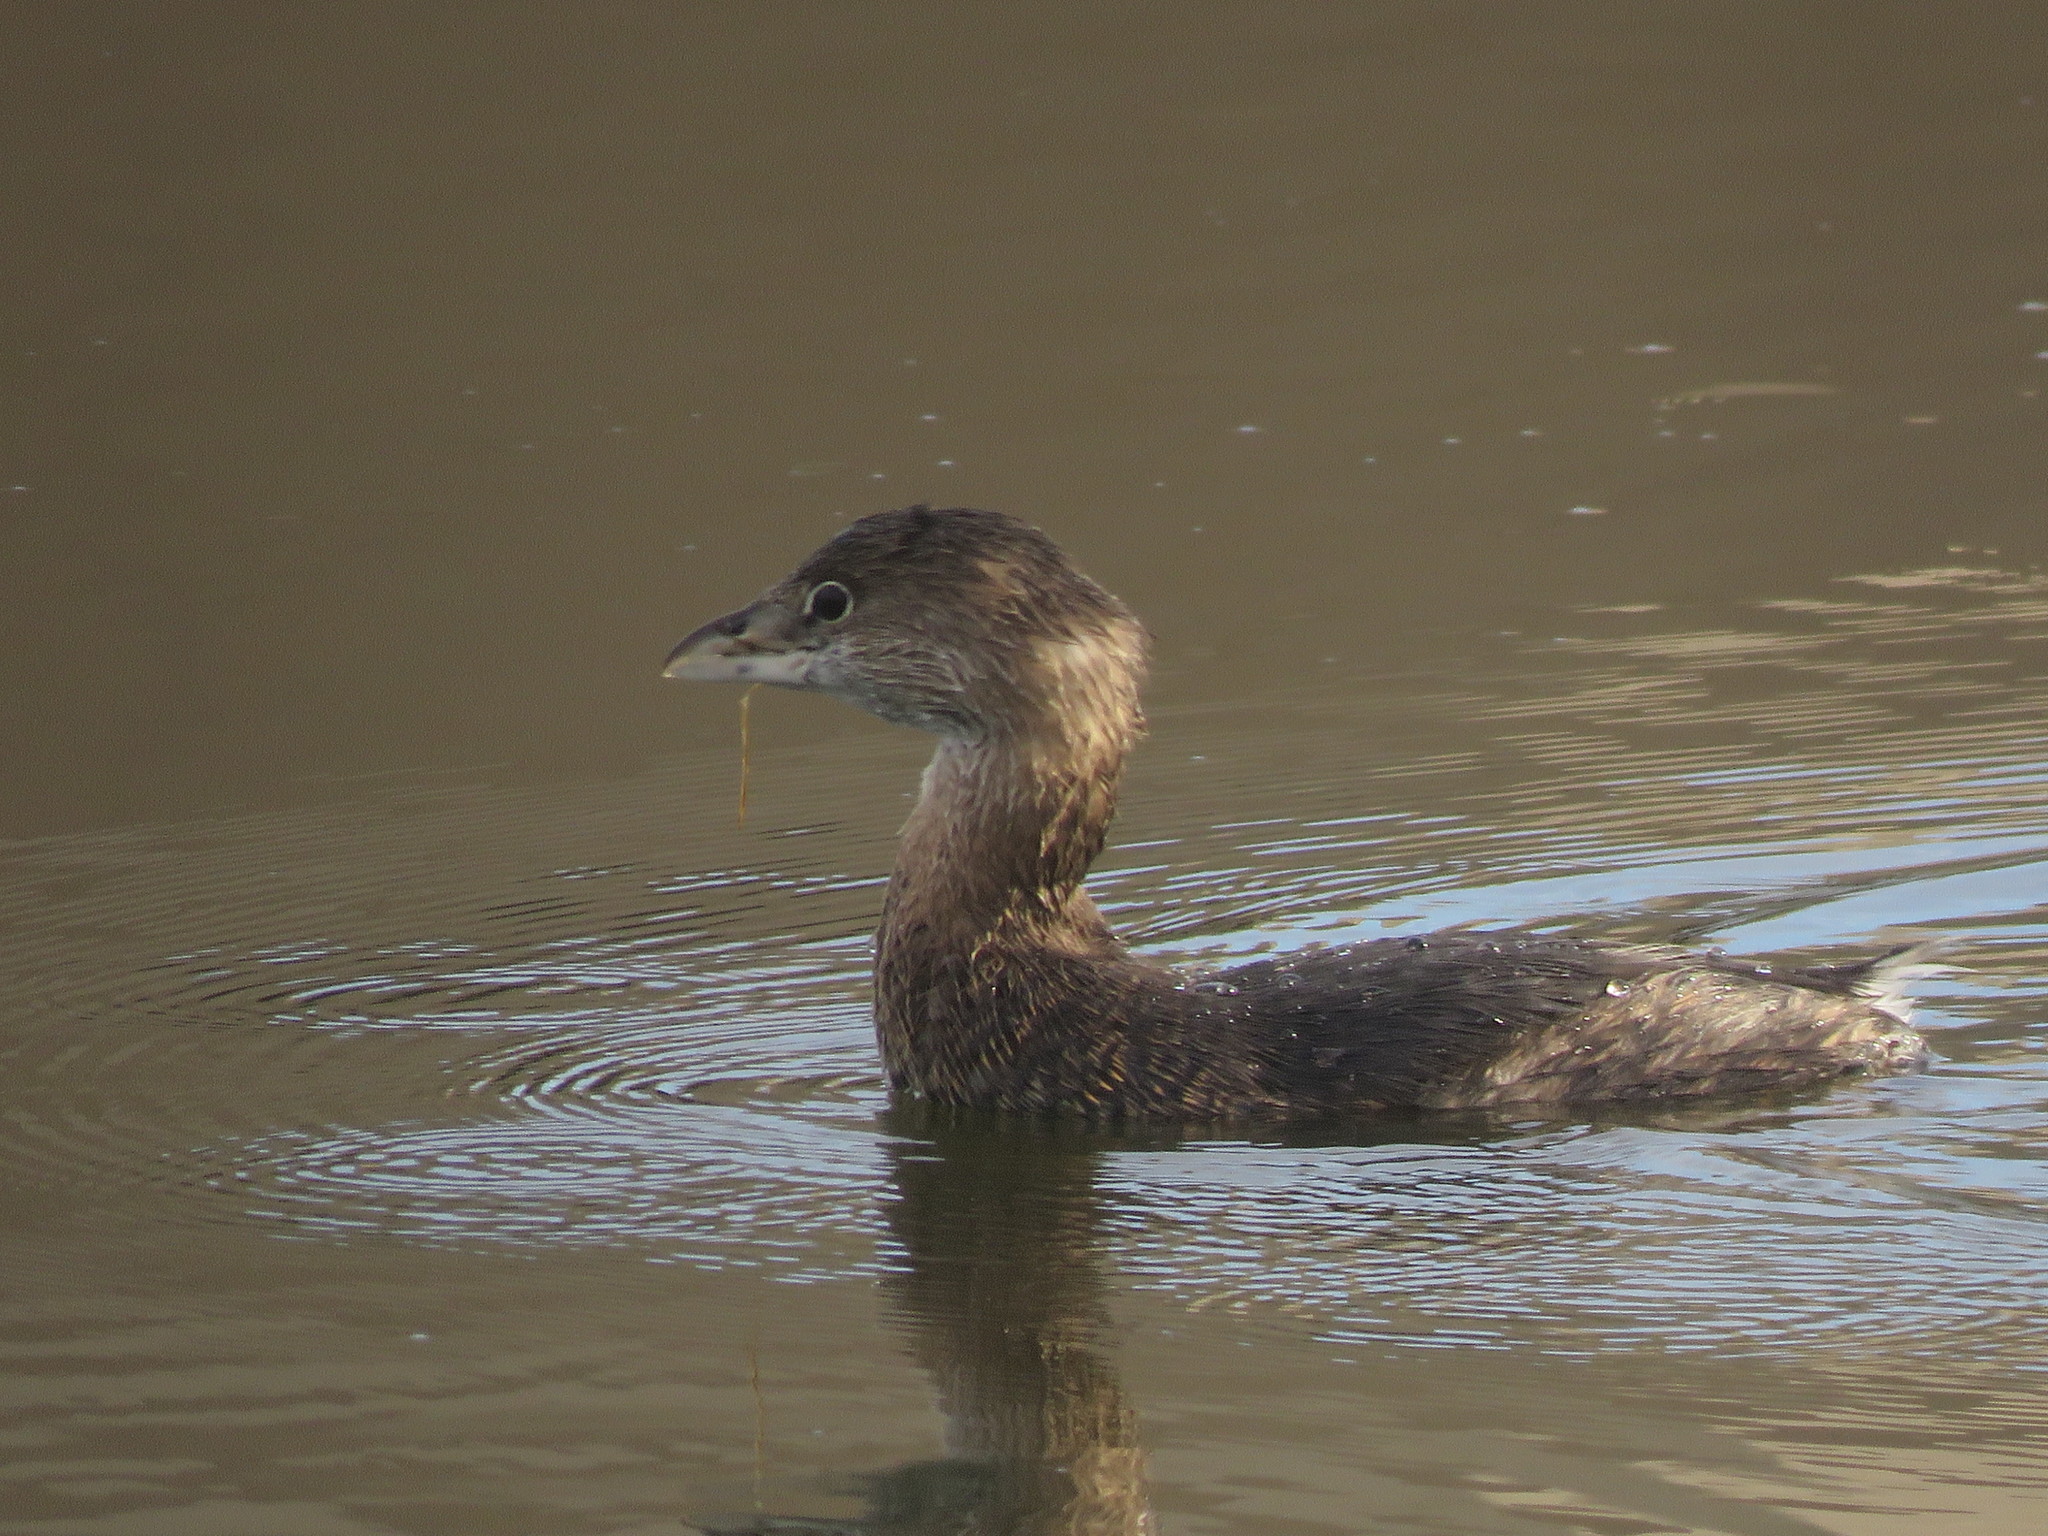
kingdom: Animalia
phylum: Chordata
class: Aves
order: Podicipediformes
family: Podicipedidae
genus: Podilymbus
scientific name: Podilymbus podiceps
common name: Pied-billed grebe
